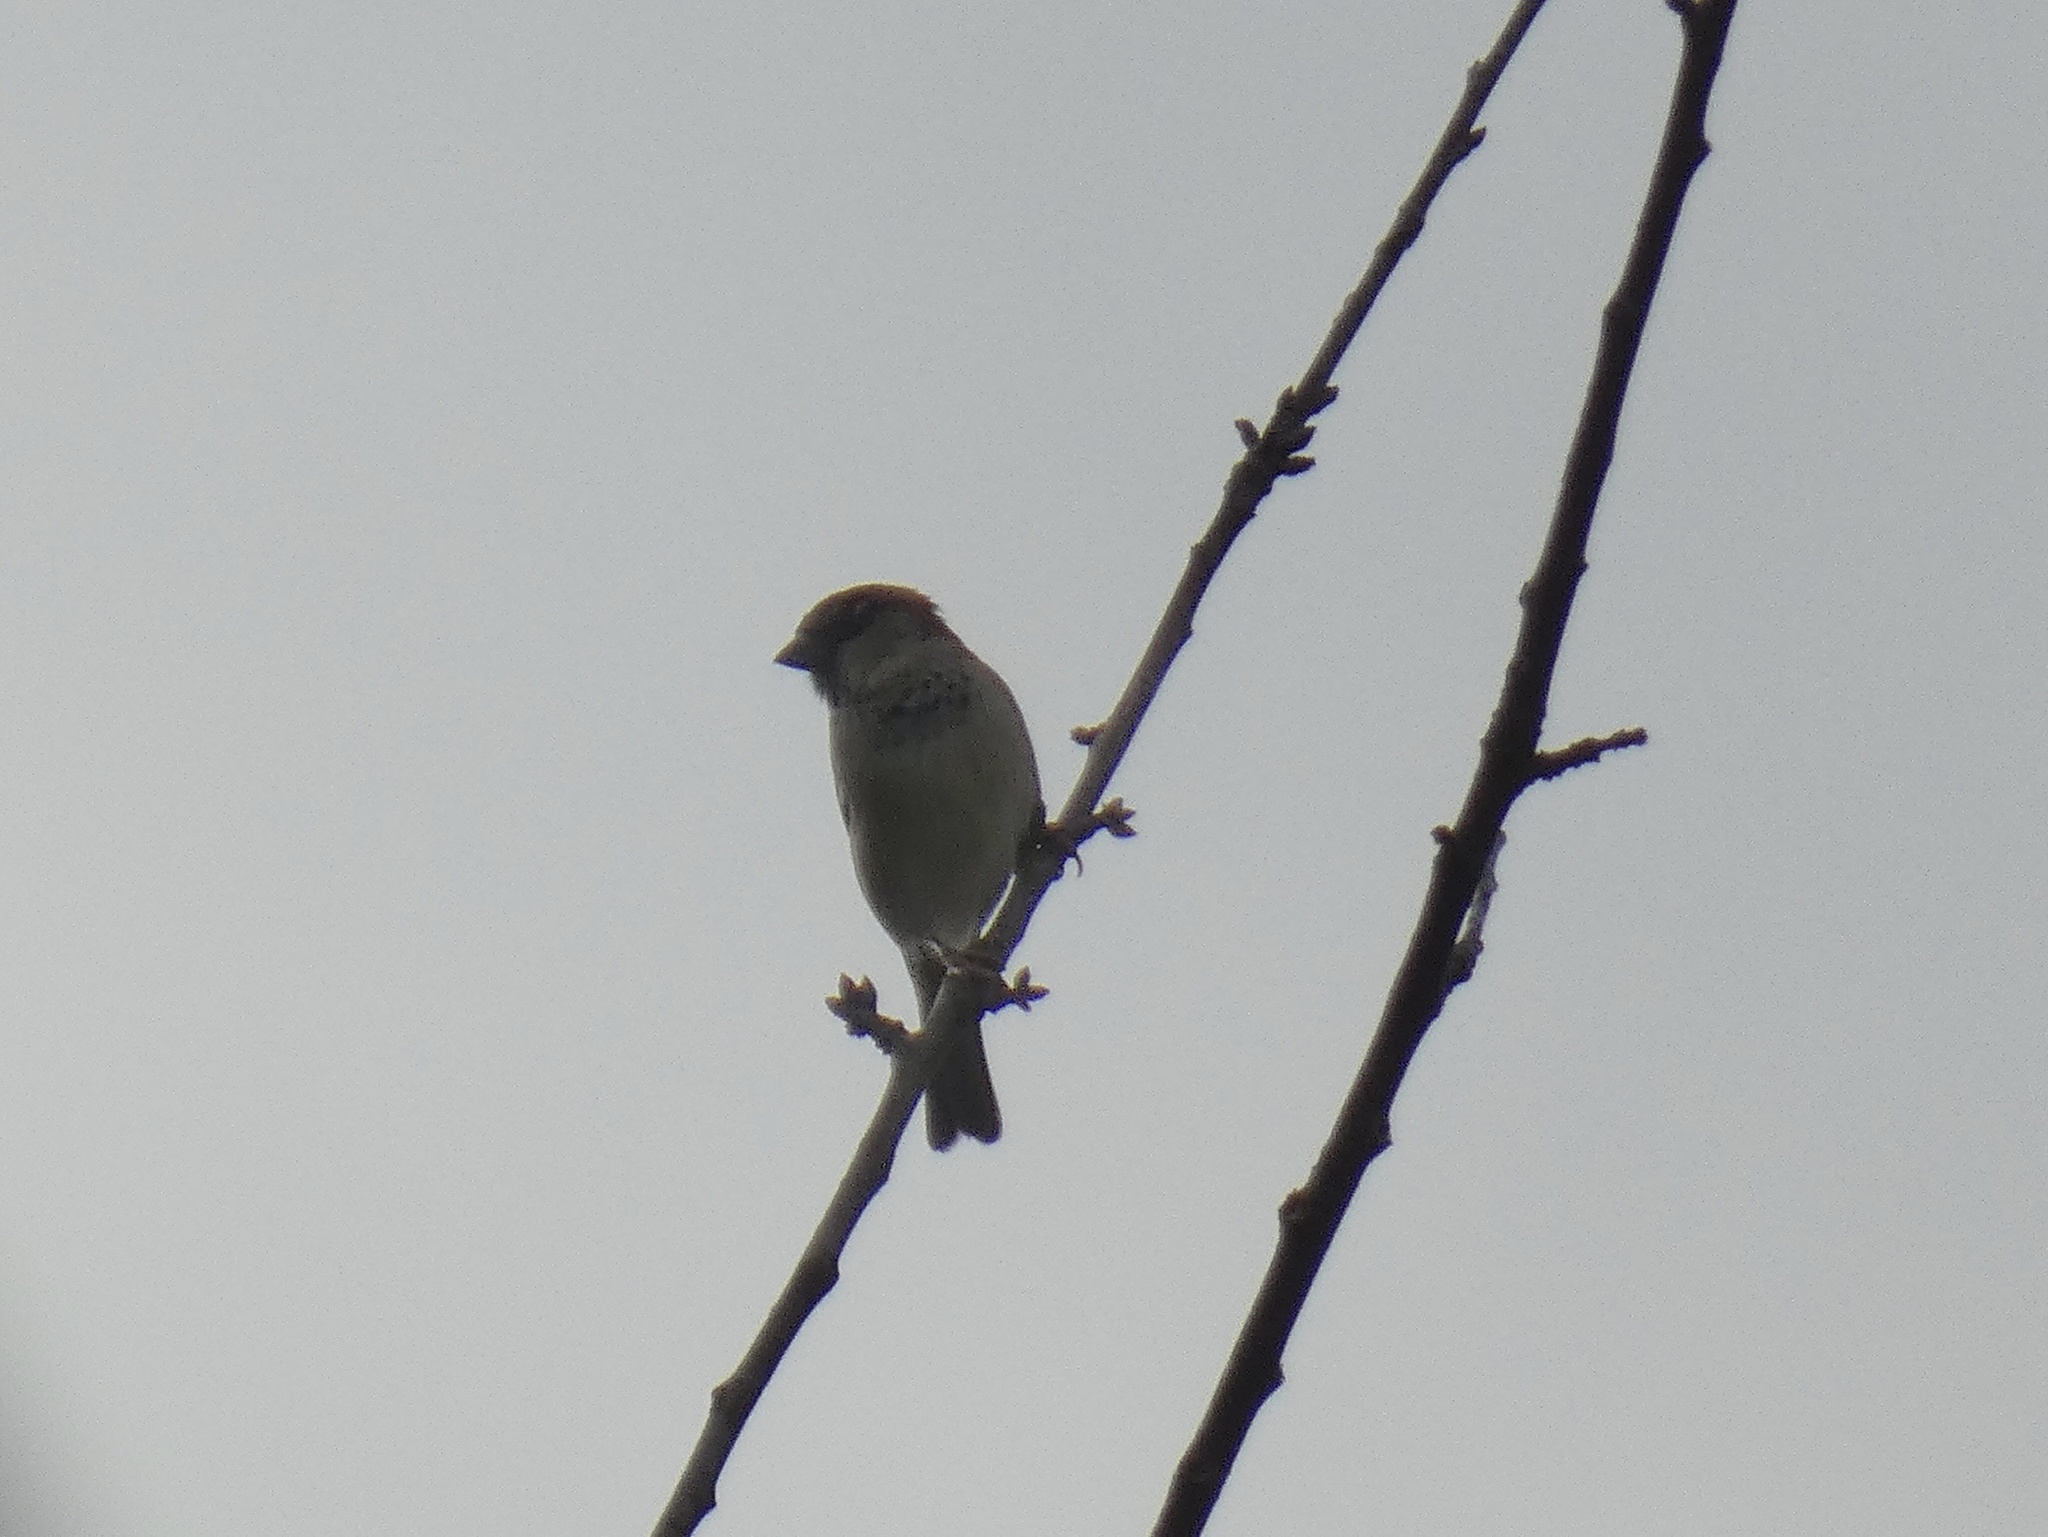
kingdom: Animalia
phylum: Chordata
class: Aves
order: Passeriformes
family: Passeridae
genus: Passer
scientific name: Passer domesticus
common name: House sparrow
